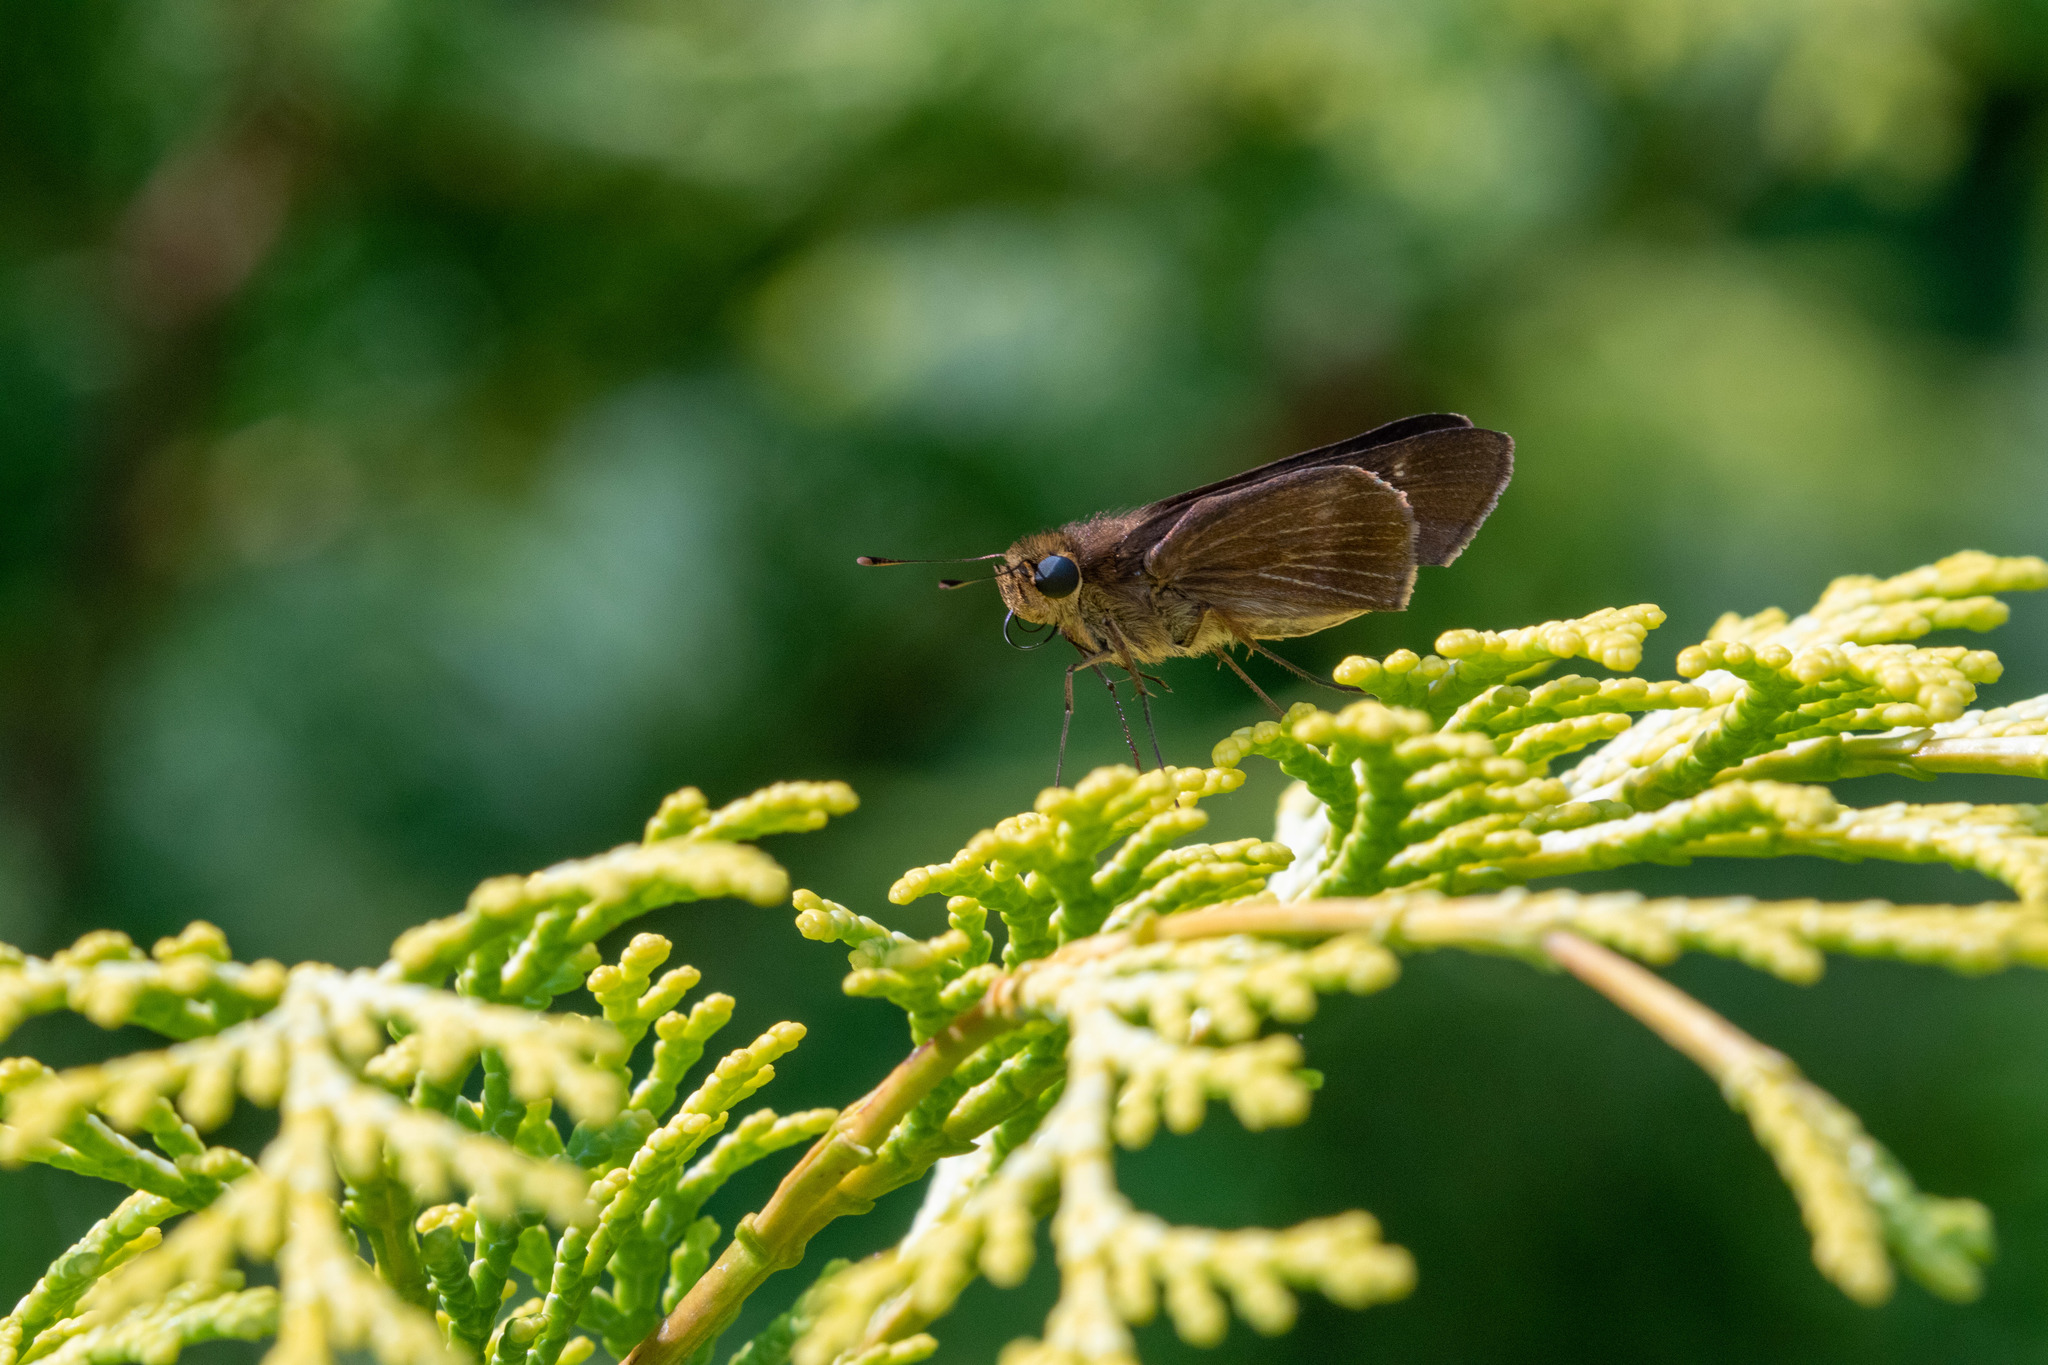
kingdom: Animalia
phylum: Arthropoda
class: Insecta
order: Lepidoptera
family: Hesperiidae
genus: Panoquina
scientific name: Panoquina ocola
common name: Ocola skipper
